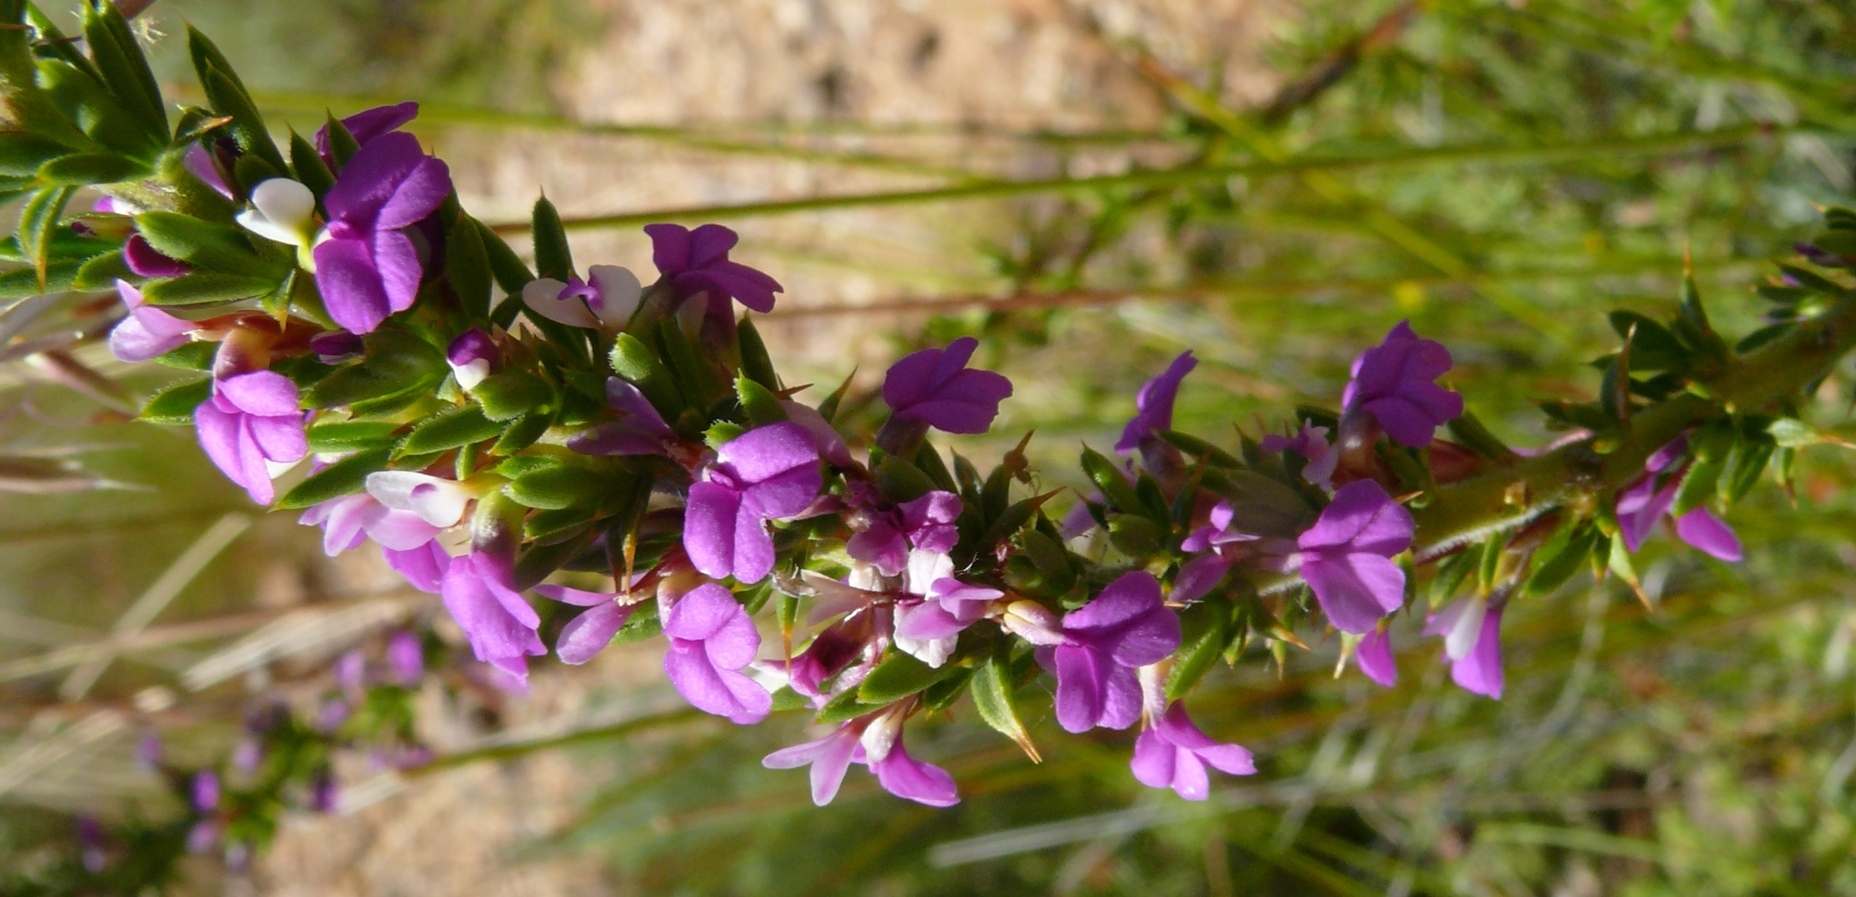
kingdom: Plantae
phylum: Tracheophyta
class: Magnoliopsida
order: Fabales
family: Polygalaceae
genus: Muraltia
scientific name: Muraltia heisteria
